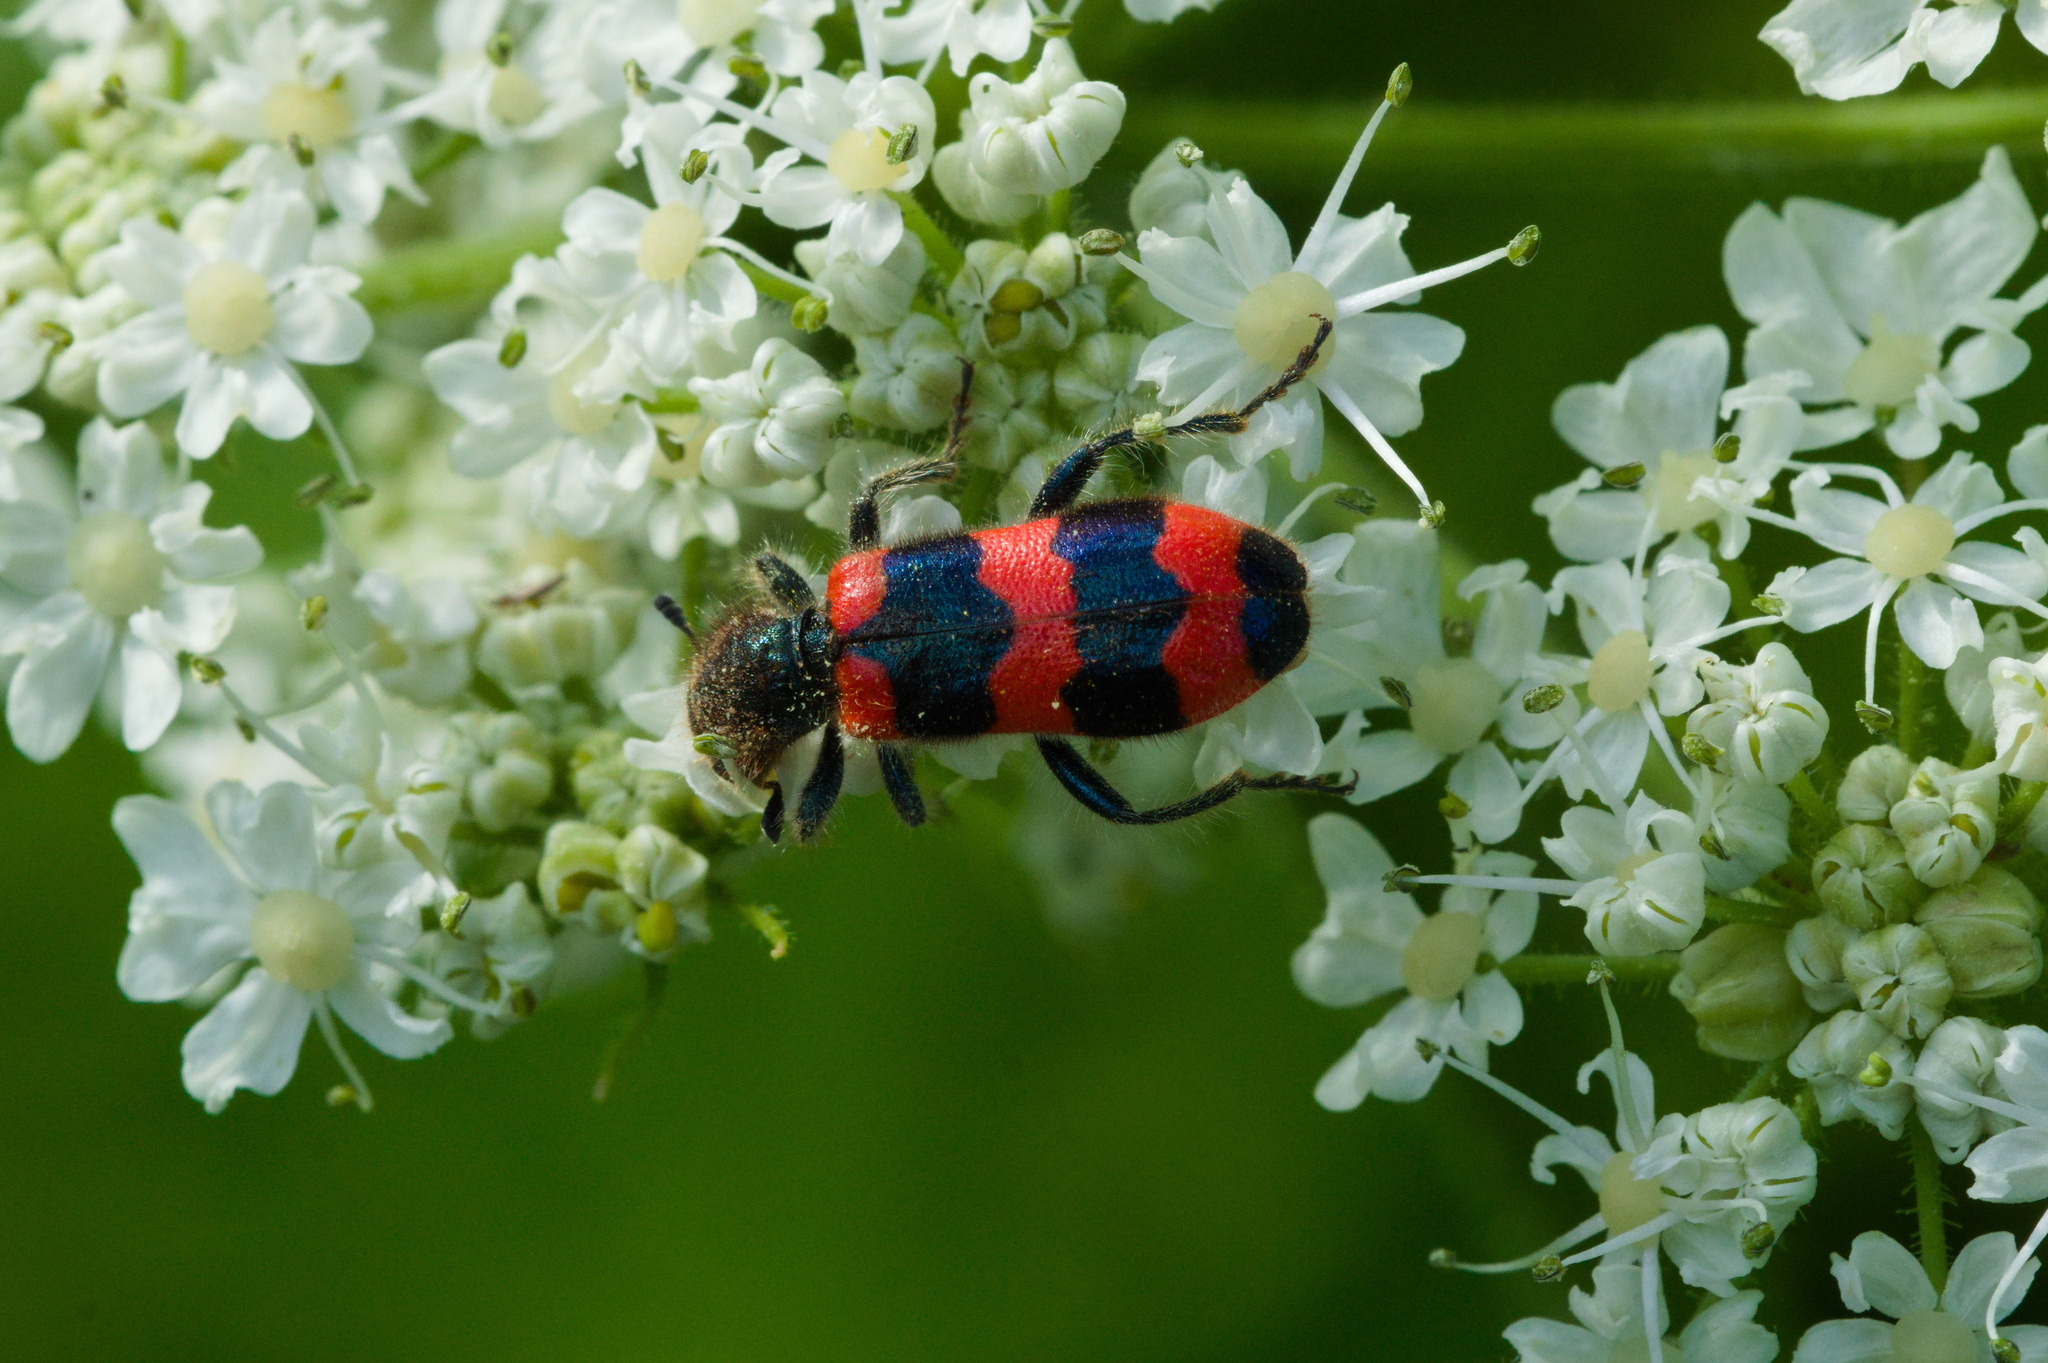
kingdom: Animalia
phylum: Arthropoda
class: Insecta
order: Coleoptera
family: Cleridae
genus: Trichodes
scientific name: Trichodes apiarius
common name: Bee-eating beetle
